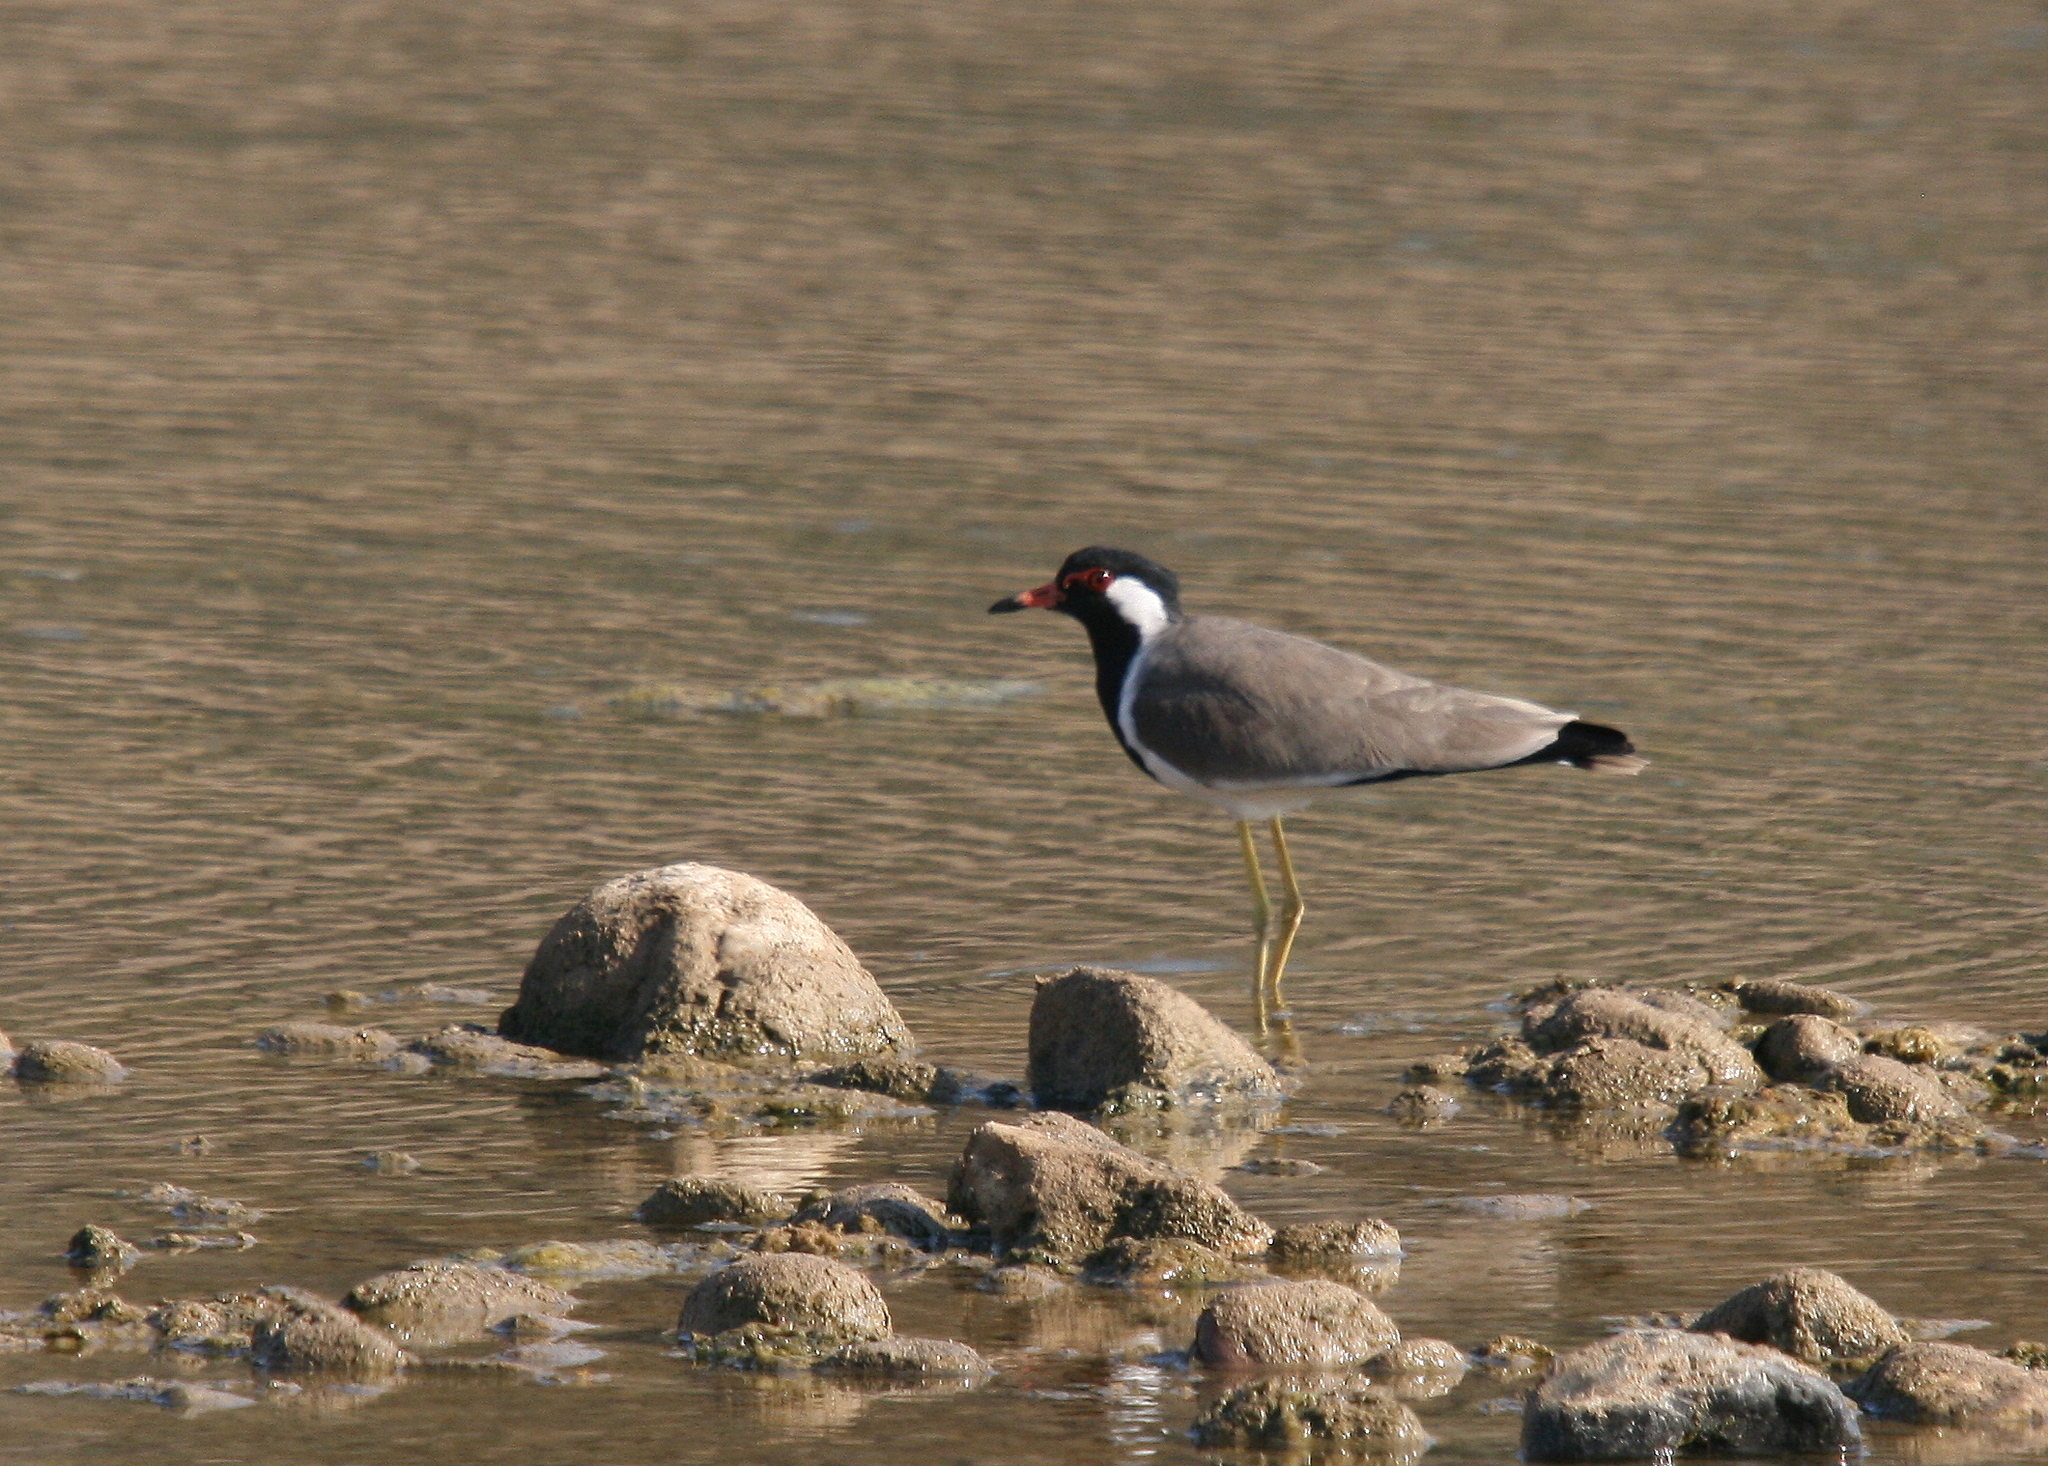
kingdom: Animalia
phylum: Chordata
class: Aves
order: Charadriiformes
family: Charadriidae
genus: Vanellus
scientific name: Vanellus indicus
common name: Red-wattled lapwing
